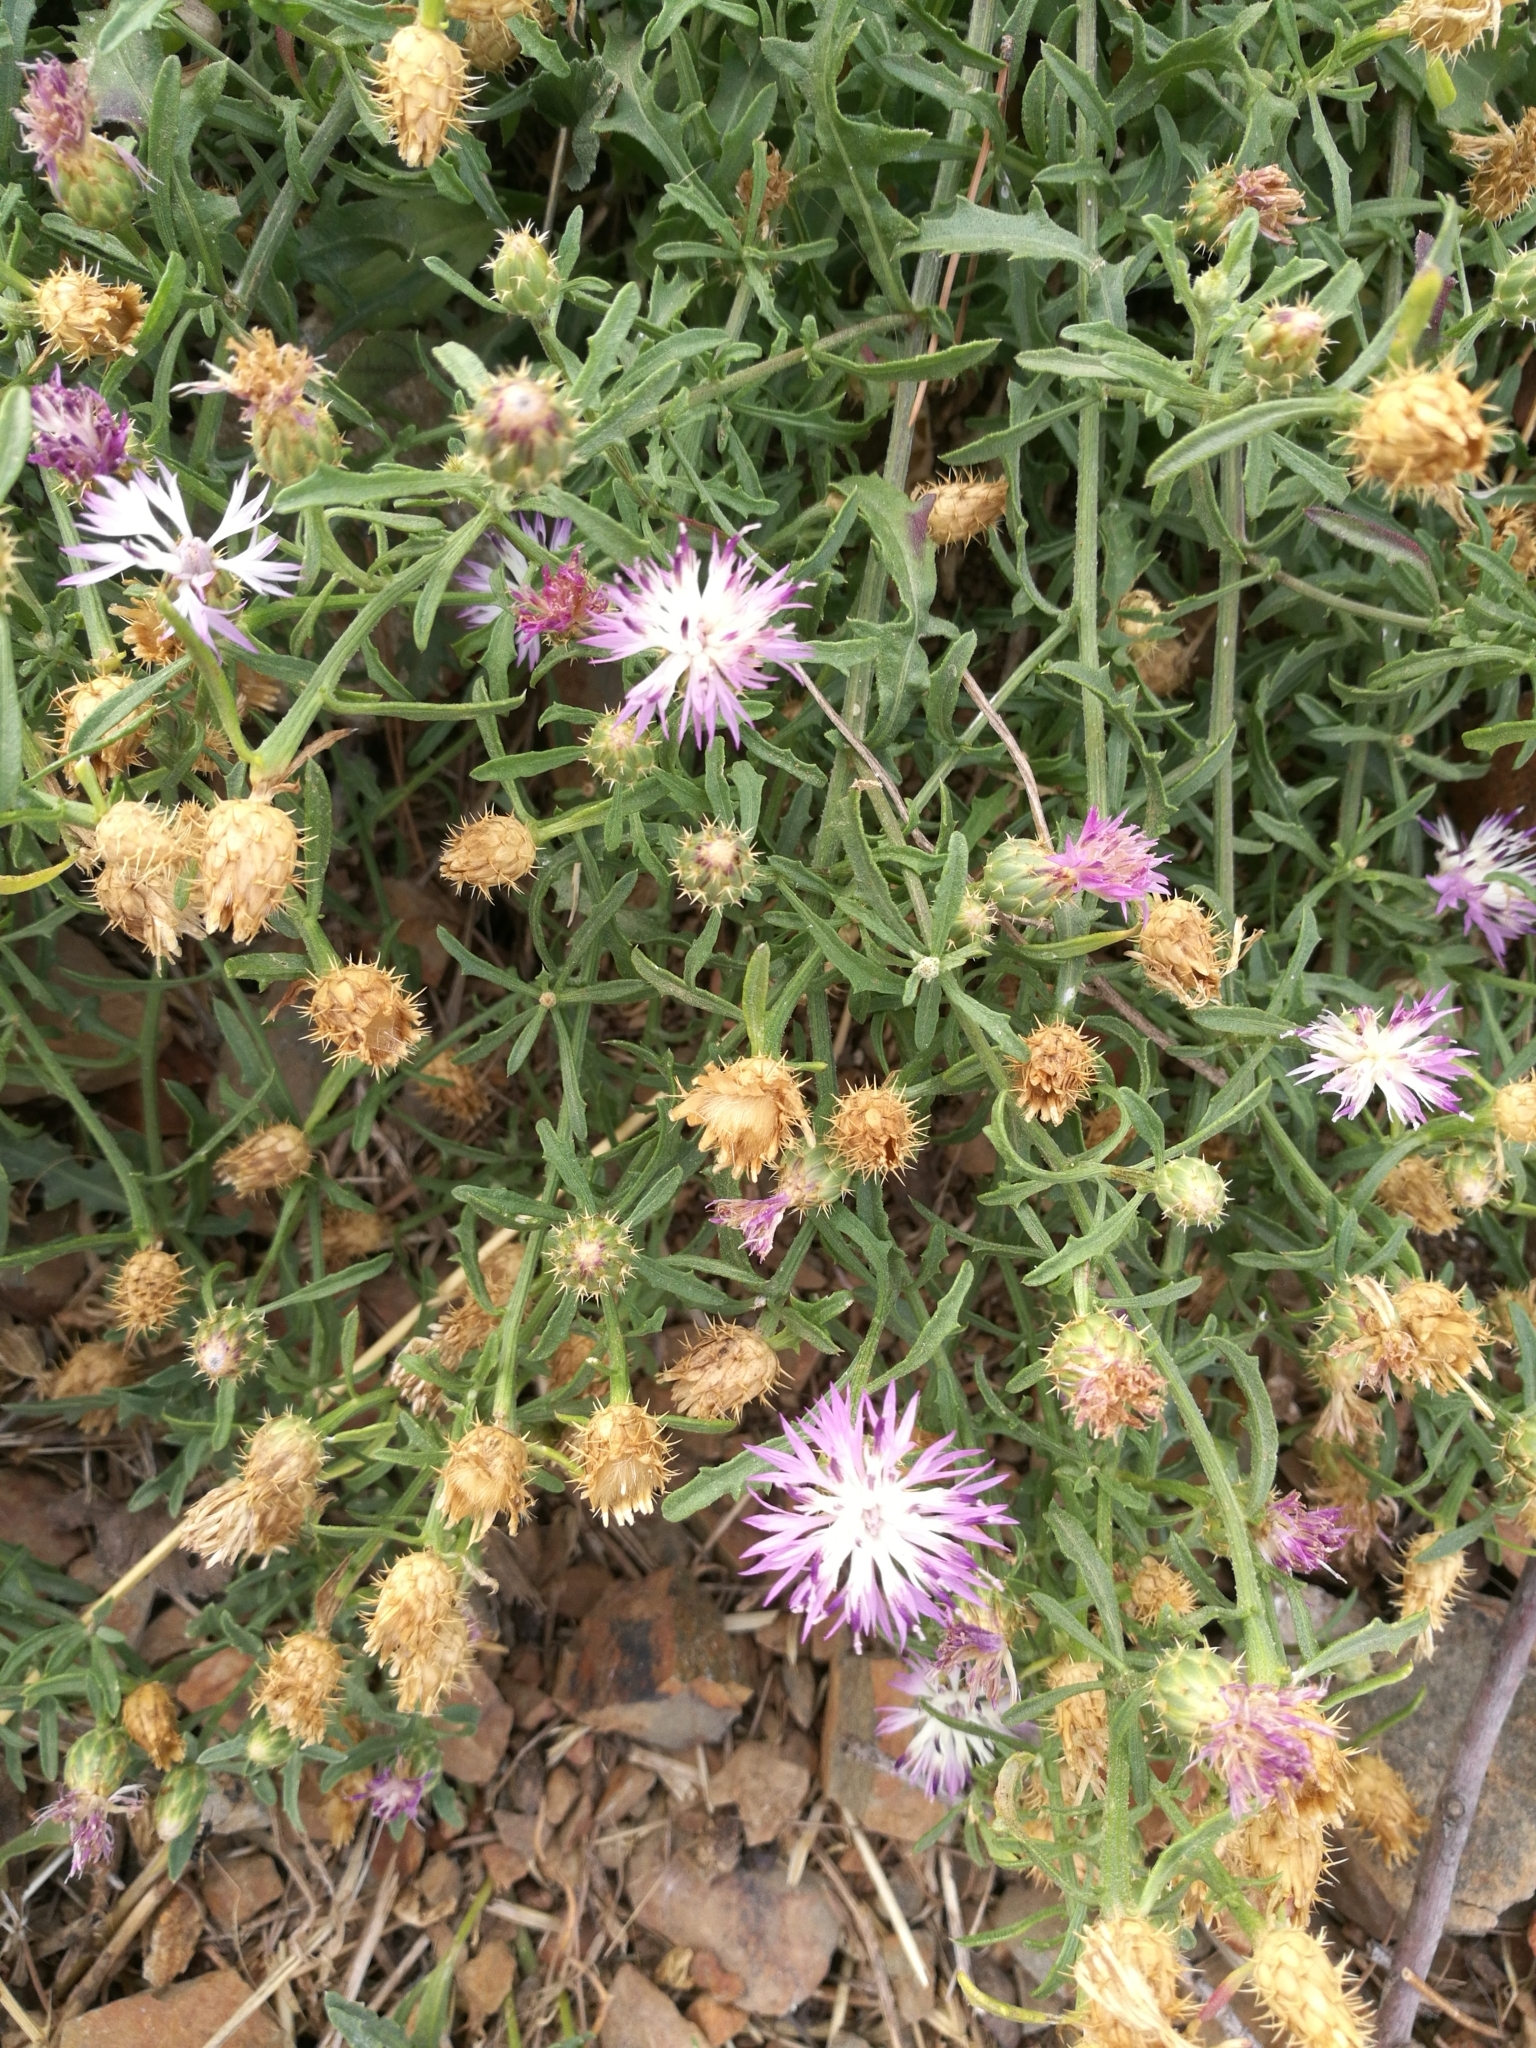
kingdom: Plantae
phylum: Tracheophyta
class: Magnoliopsida
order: Asterales
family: Asteraceae
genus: Centaurea
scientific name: Centaurea aspera
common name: Rough star-thistle
